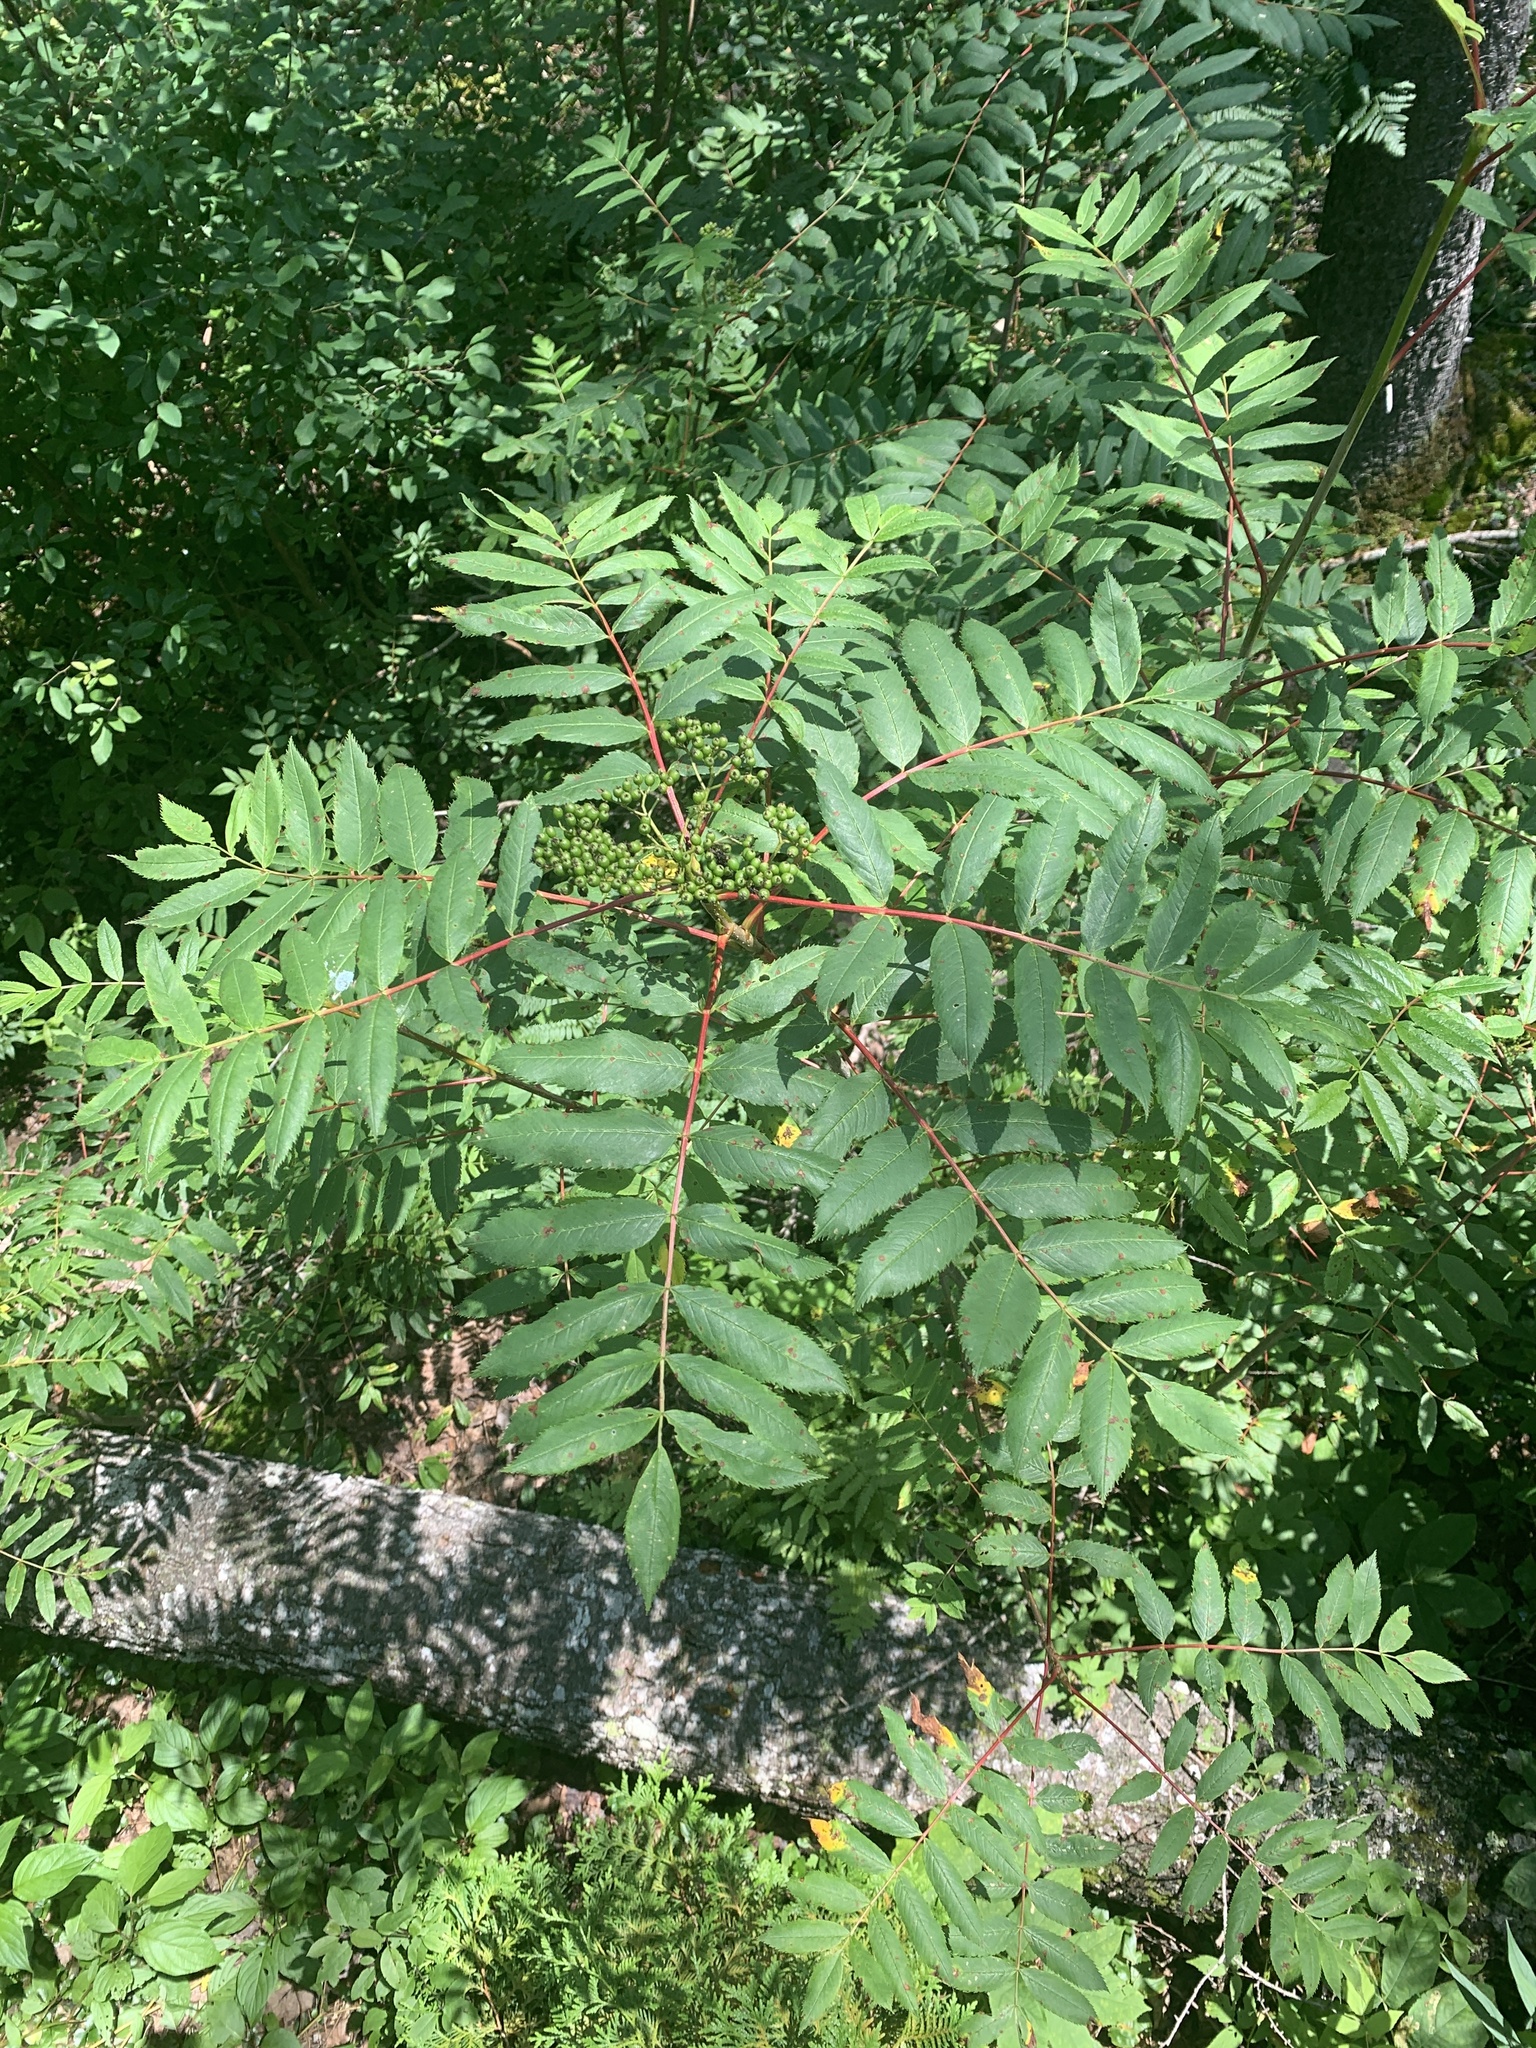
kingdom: Plantae
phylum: Tracheophyta
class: Magnoliopsida
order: Rosales
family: Rosaceae
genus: Sorbus
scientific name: Sorbus americana
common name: American mountain-ash
